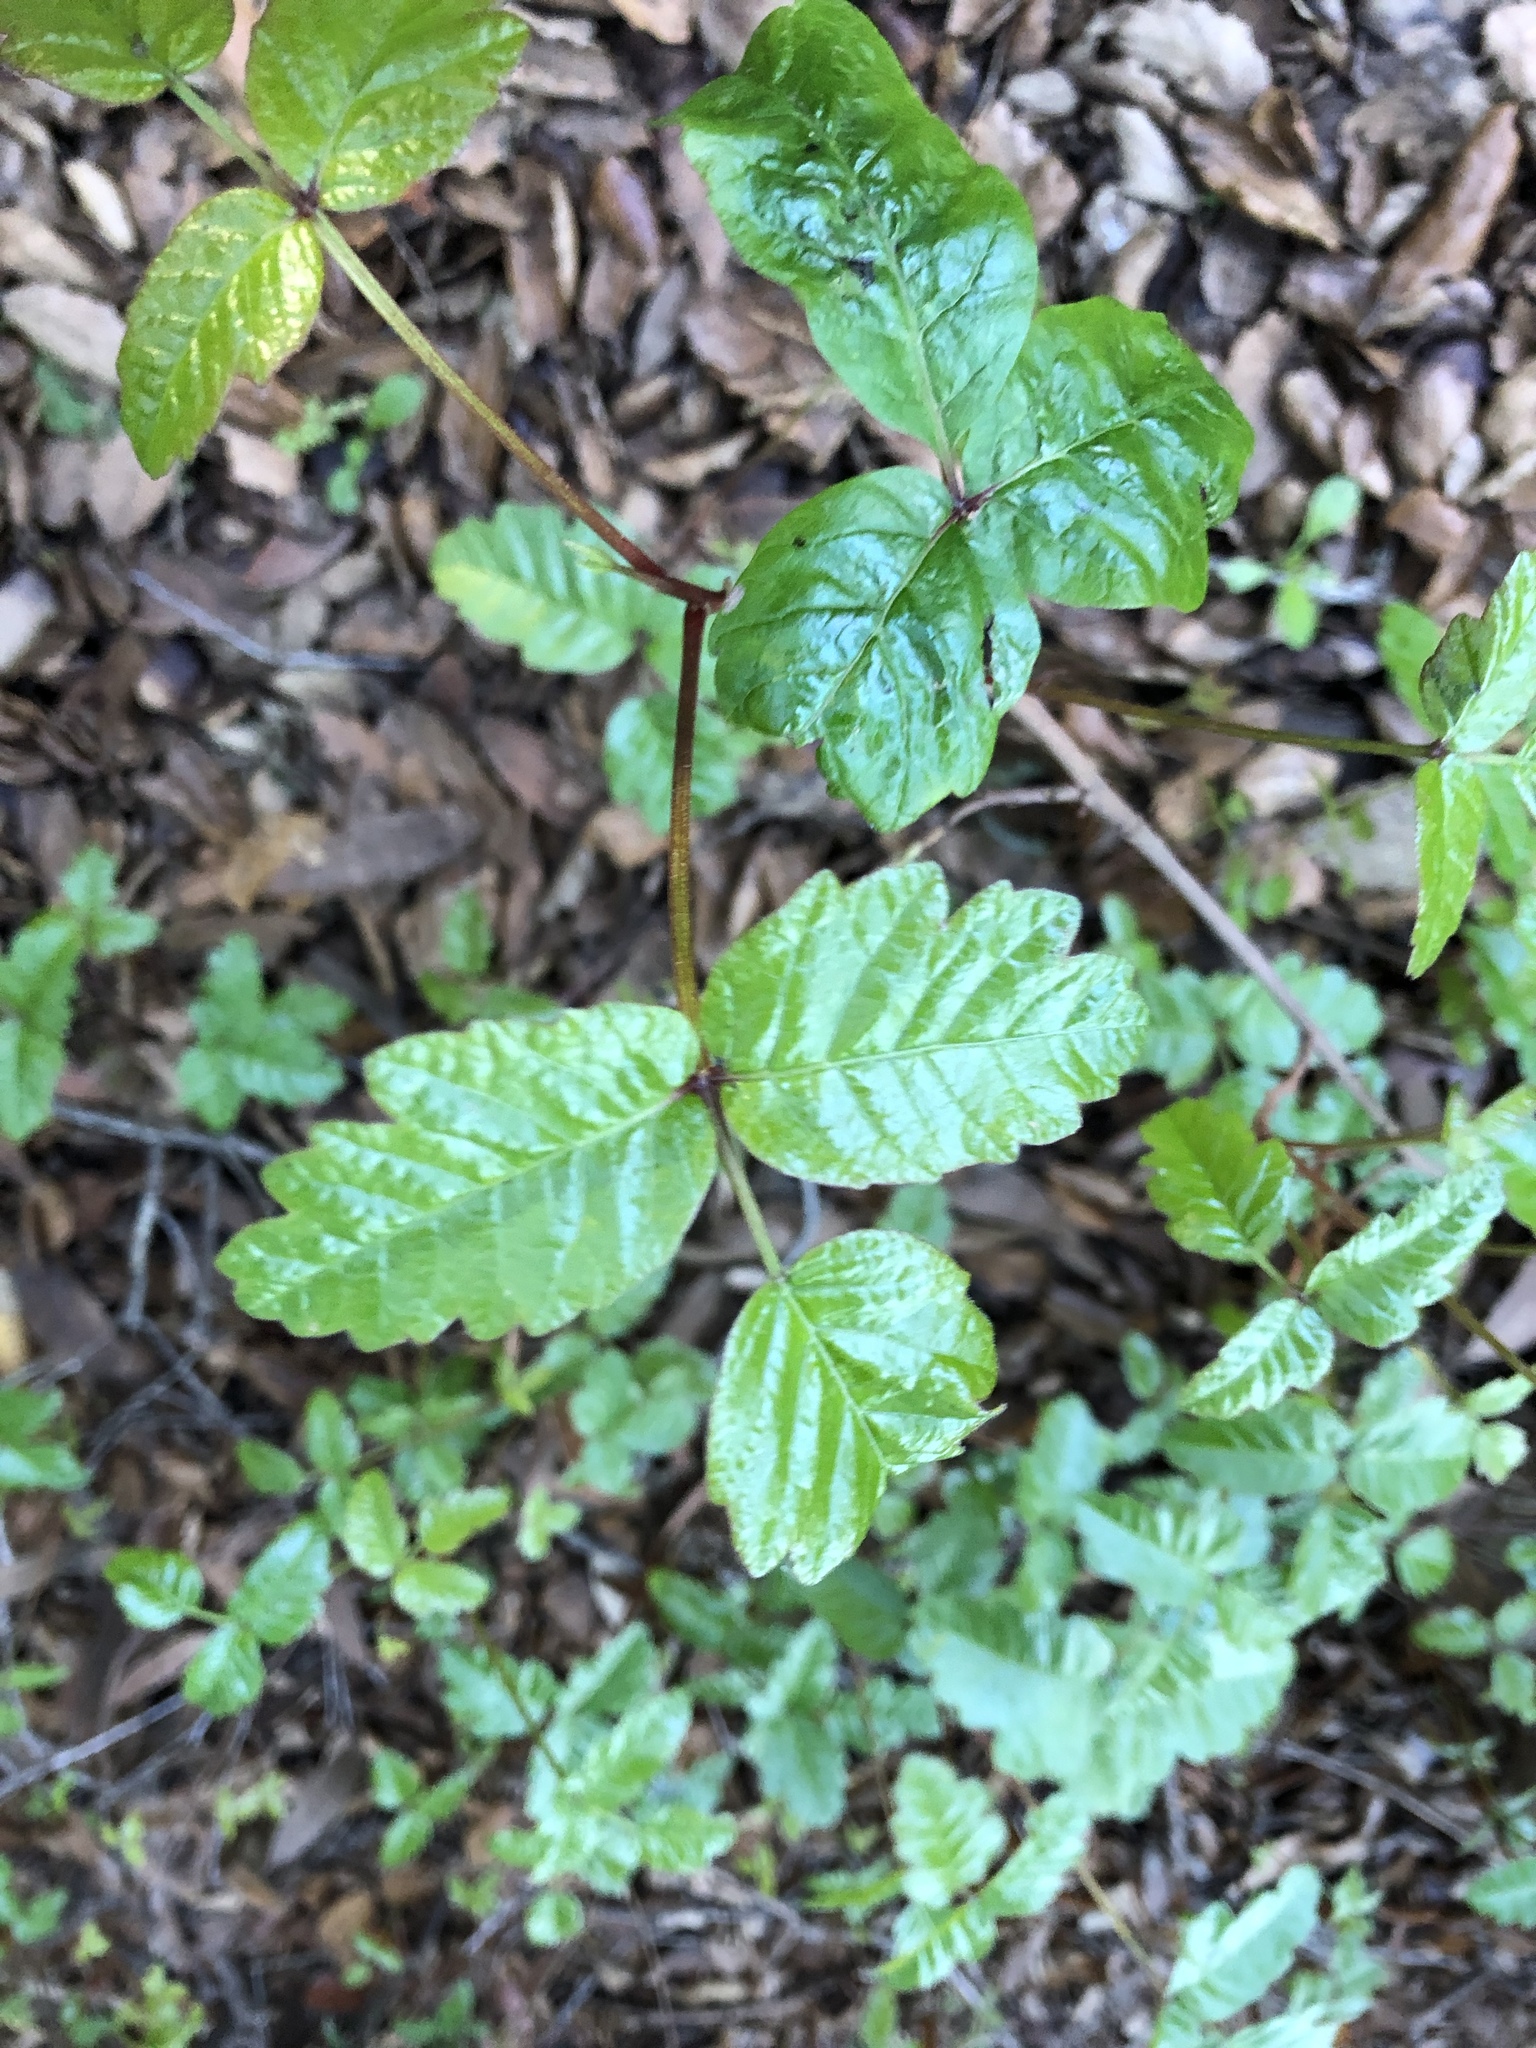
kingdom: Plantae
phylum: Tracheophyta
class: Magnoliopsida
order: Sapindales
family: Anacardiaceae
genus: Toxicodendron
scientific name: Toxicodendron diversilobum
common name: Pacific poison-oak
